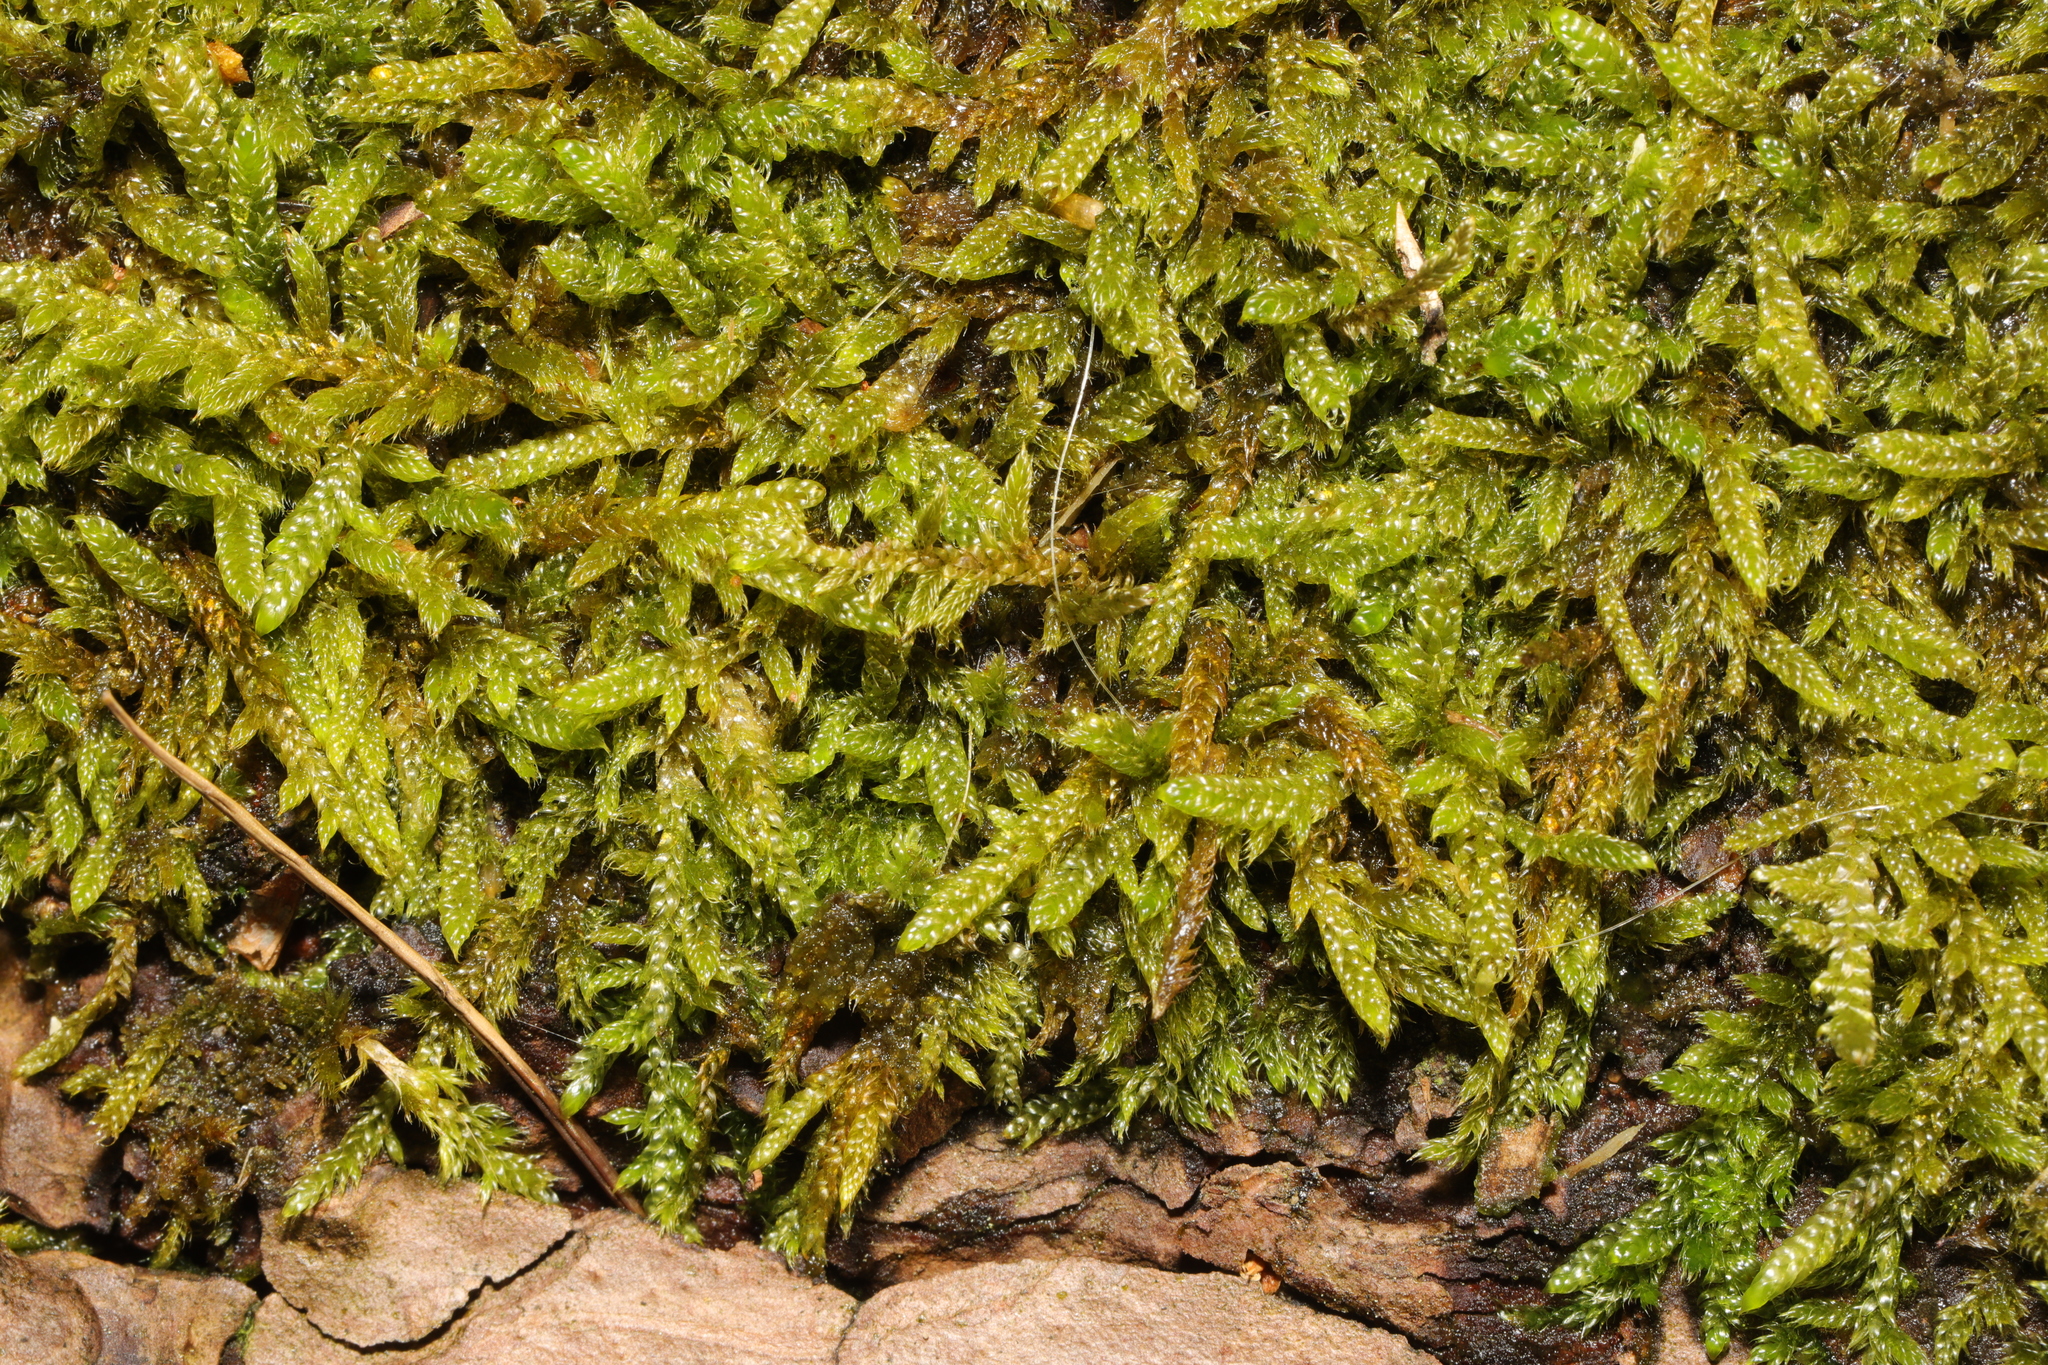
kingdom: Plantae
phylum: Bryophyta
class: Bryopsida
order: Hypnales
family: Hypnaceae
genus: Hypnum
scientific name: Hypnum cupressiforme
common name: Cypress-leaved plait-moss
